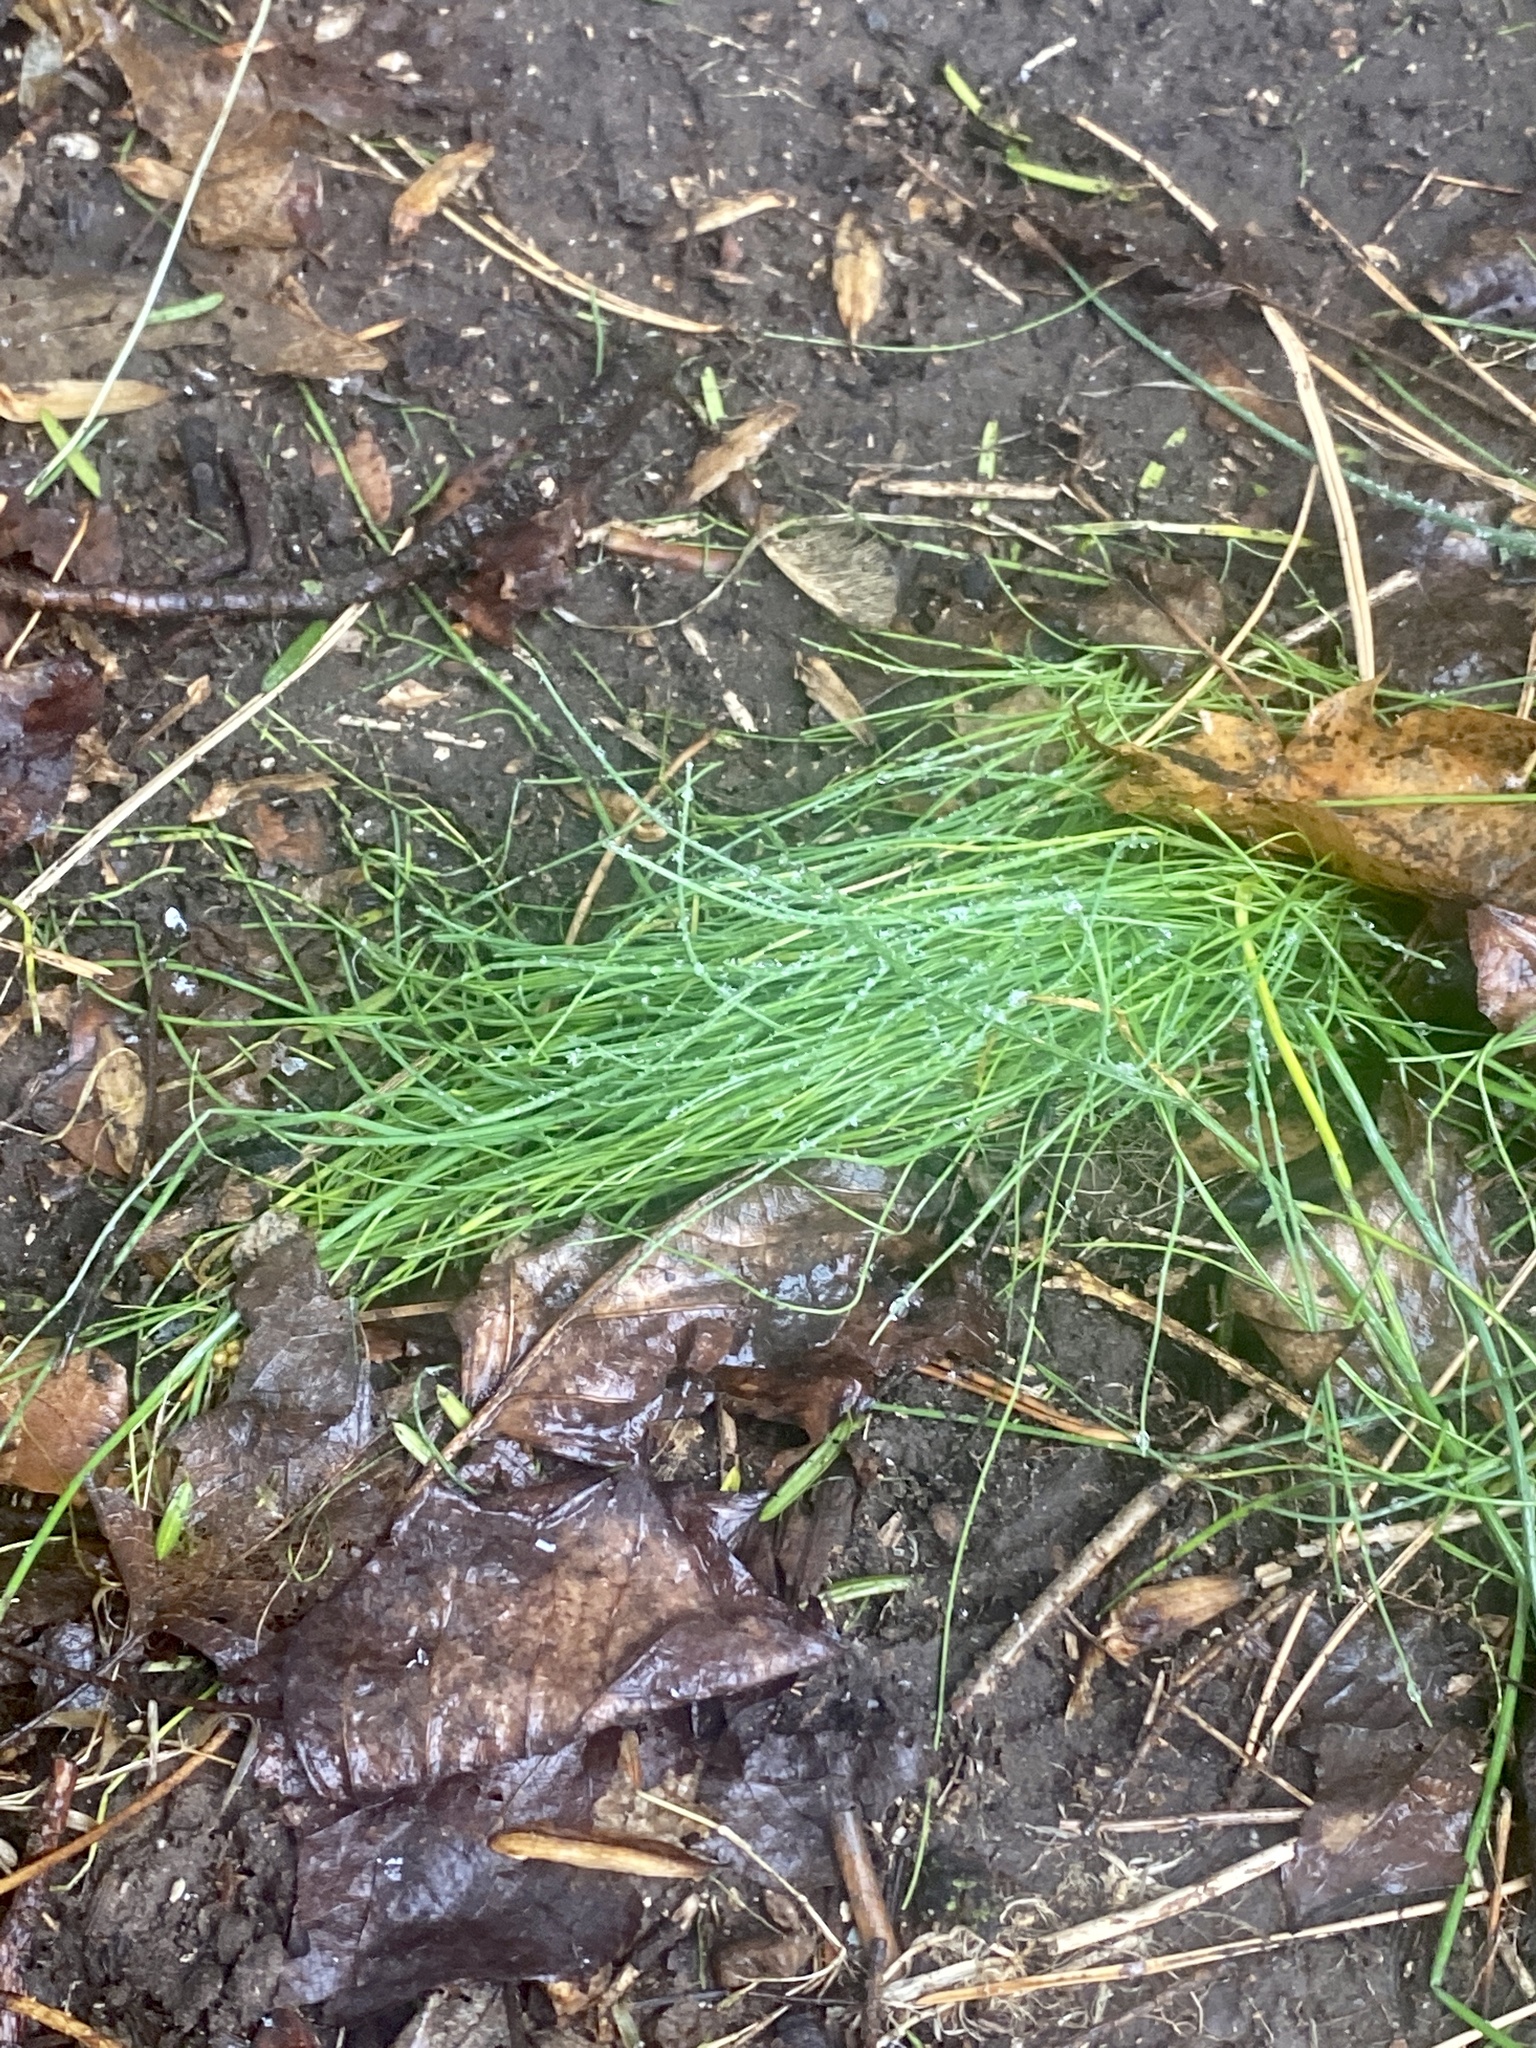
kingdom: Plantae
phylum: Tracheophyta
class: Liliopsida
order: Asparagales
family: Amaryllidaceae
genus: Allium
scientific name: Allium vineale
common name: Crow garlic
